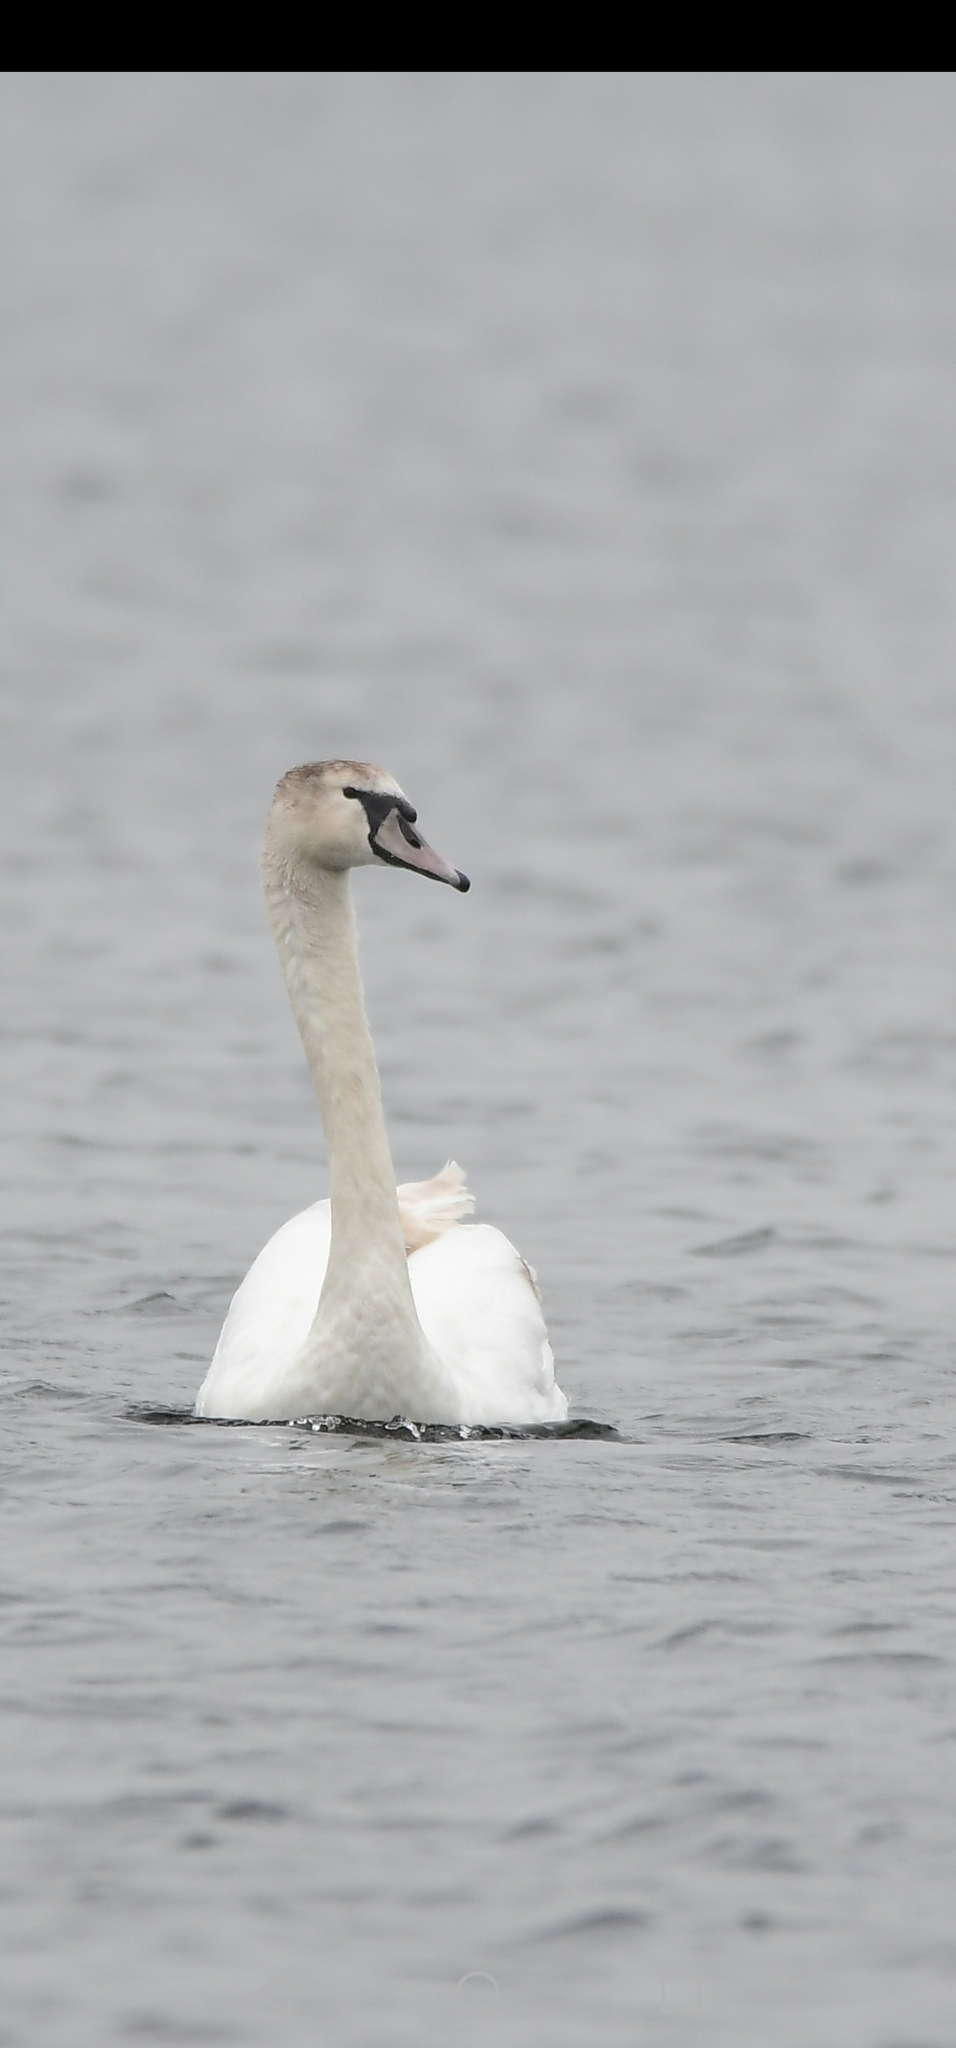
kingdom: Animalia
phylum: Chordata
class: Aves
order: Anseriformes
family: Anatidae
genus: Cygnus
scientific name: Cygnus olor
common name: Mute swan
